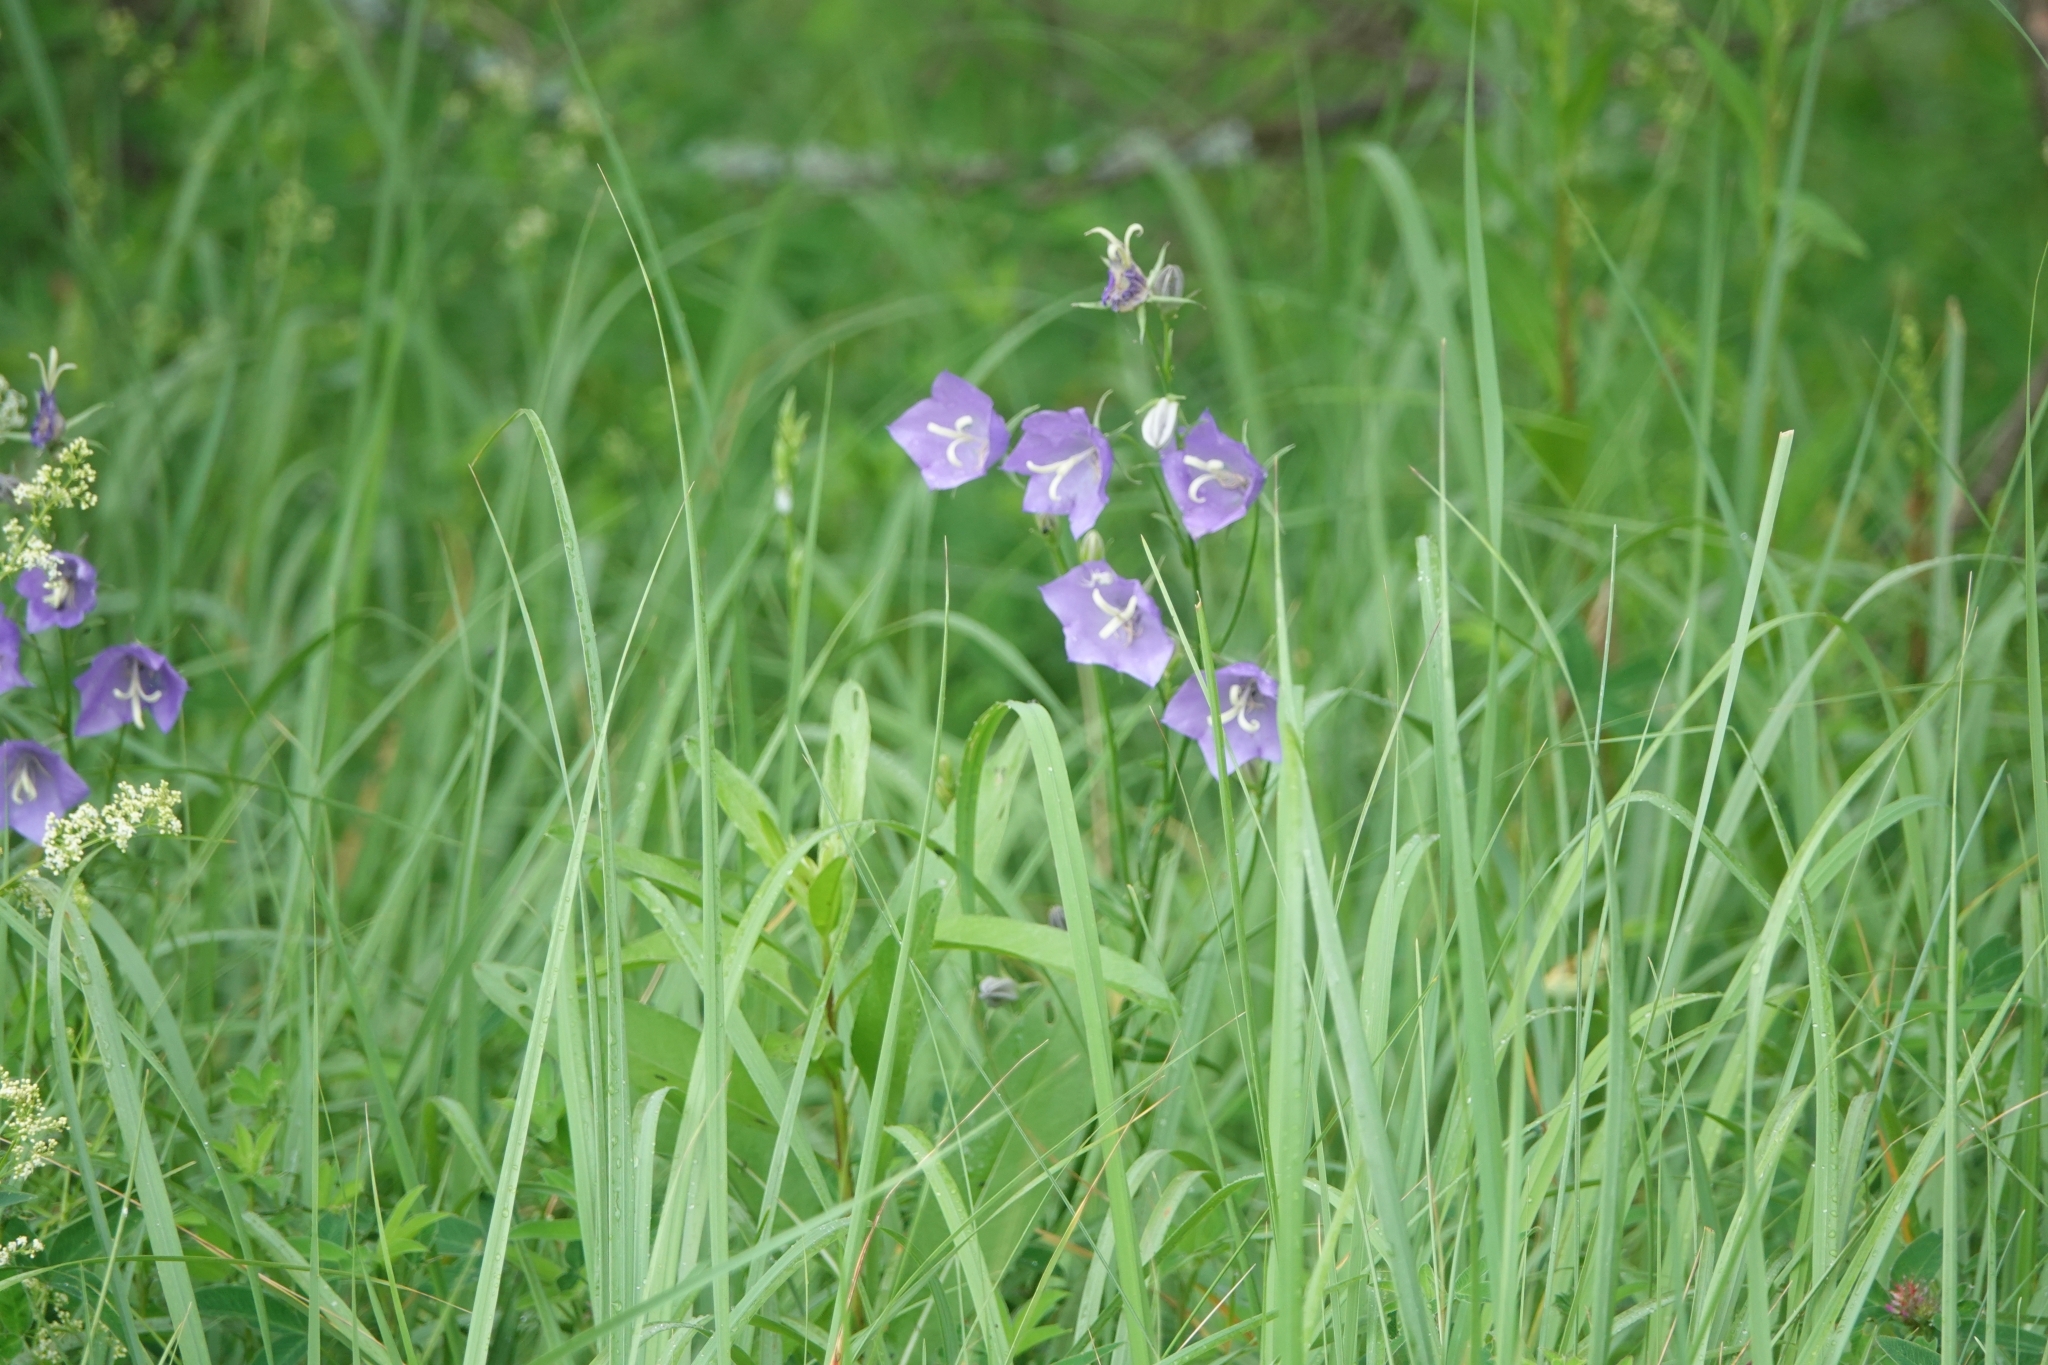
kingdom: Plantae
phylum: Tracheophyta
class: Magnoliopsida
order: Asterales
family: Campanulaceae
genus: Campanula
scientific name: Campanula persicifolia
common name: Peach-leaved bellflower
